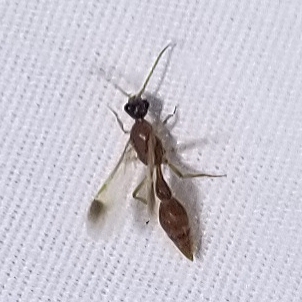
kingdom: Animalia
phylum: Arthropoda
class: Insecta
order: Hymenoptera
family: Chyphotidae
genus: Chyphotes
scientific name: Chyphotes
